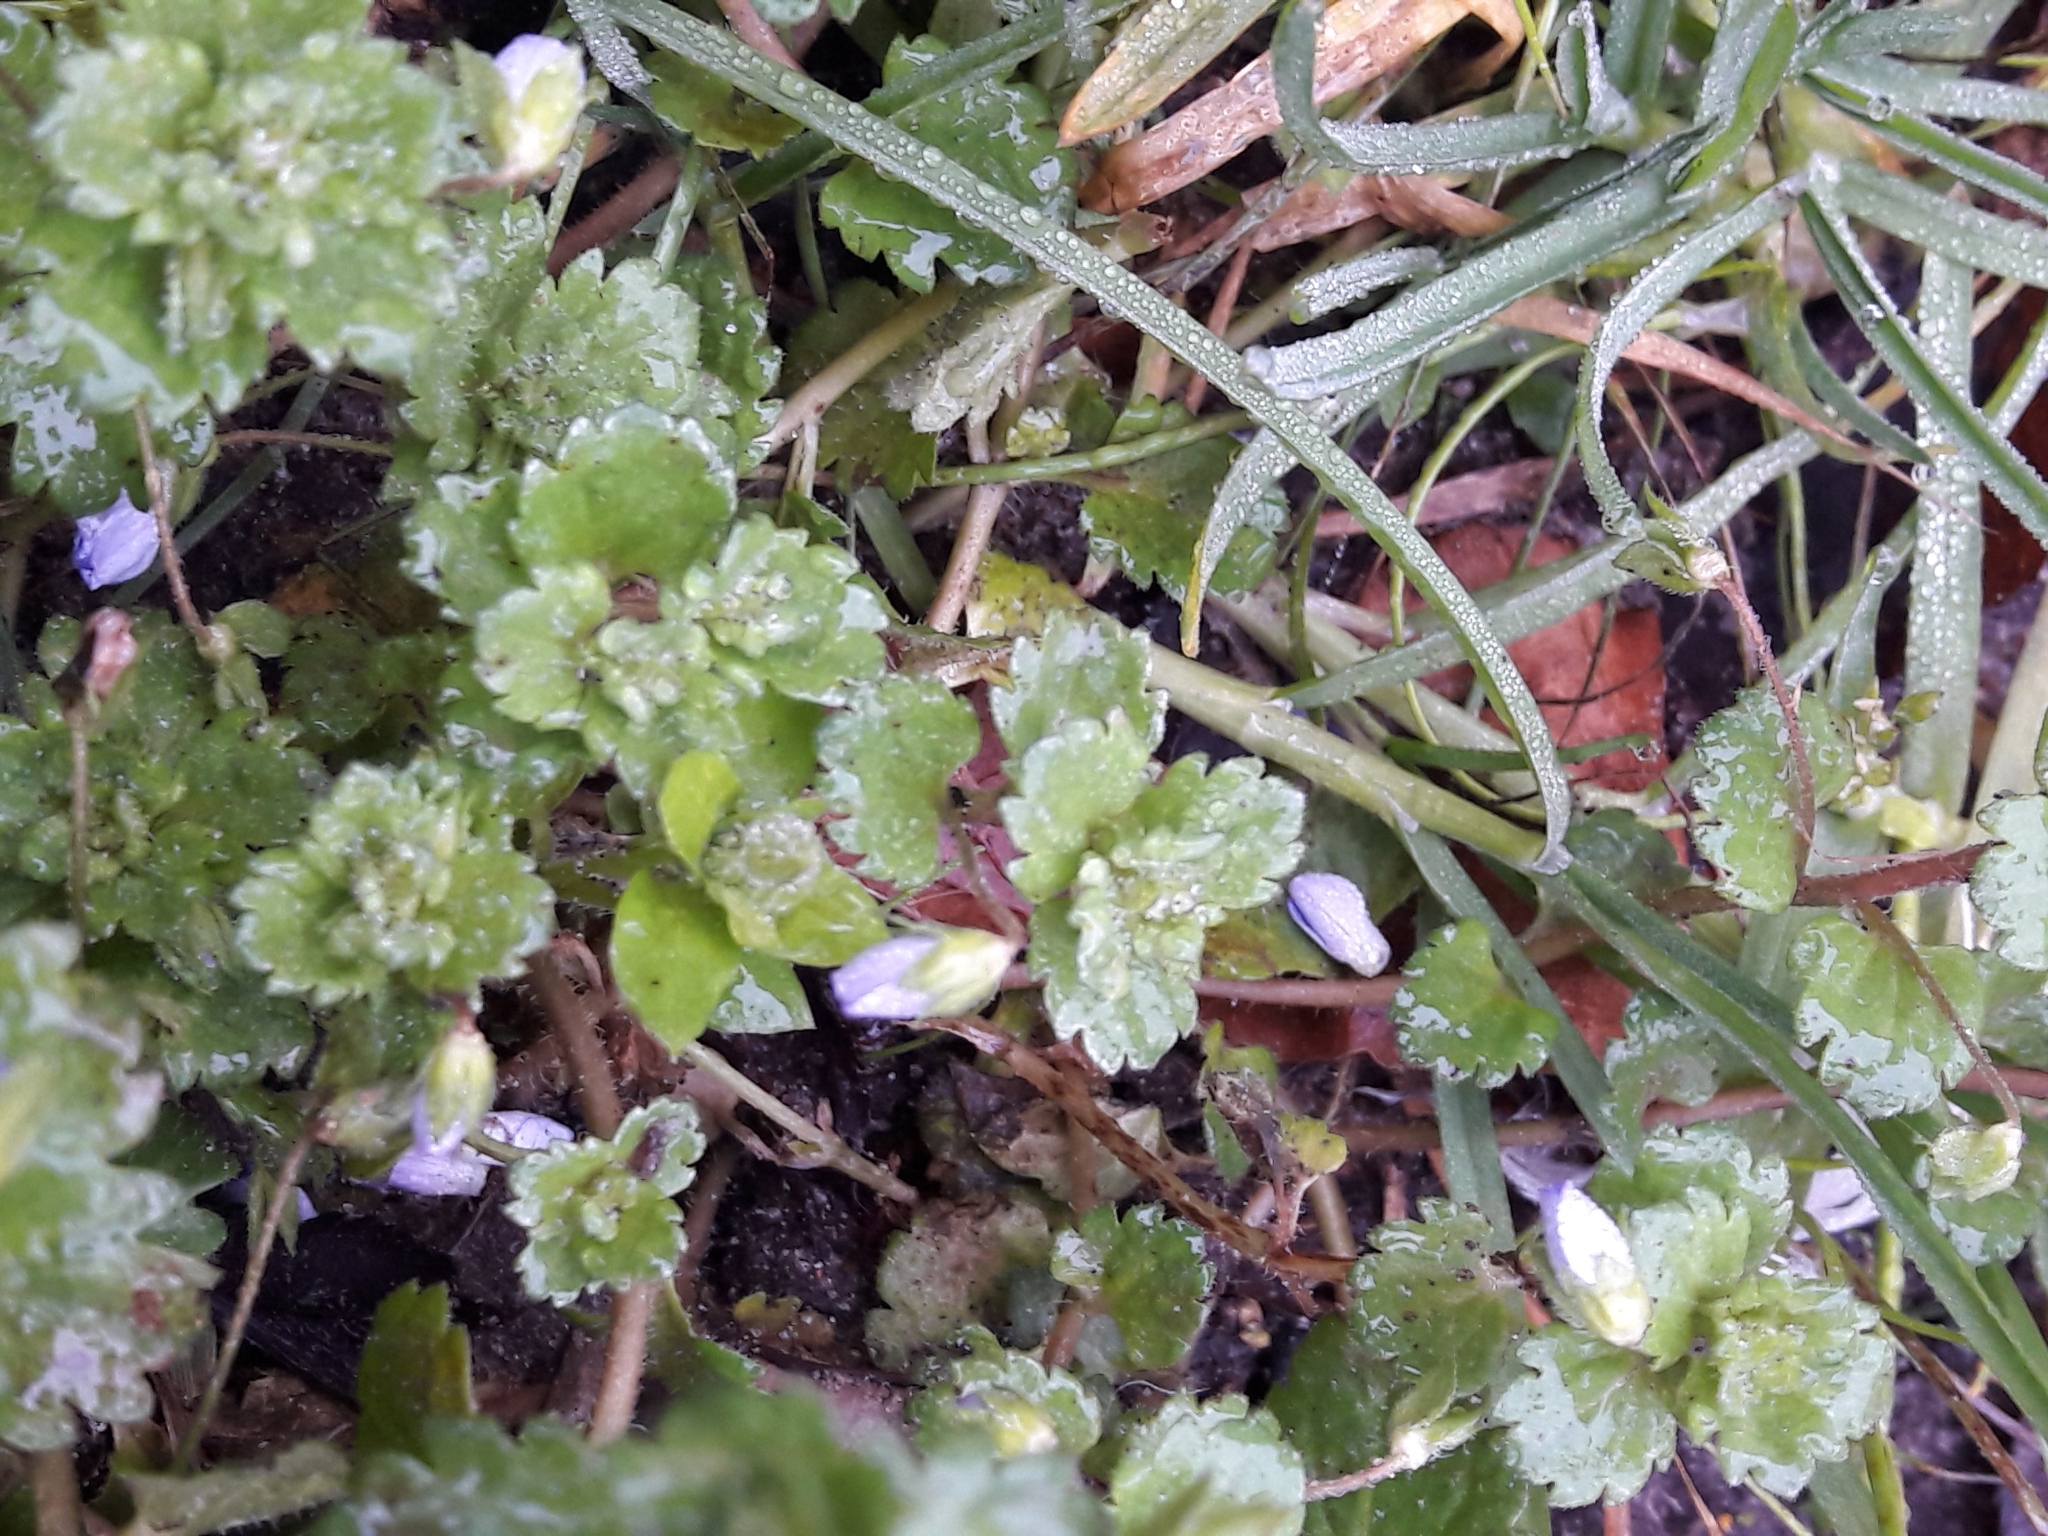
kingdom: Plantae
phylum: Tracheophyta
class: Magnoliopsida
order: Lamiales
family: Plantaginaceae
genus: Veronica
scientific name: Veronica persica
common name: Common field-speedwell
